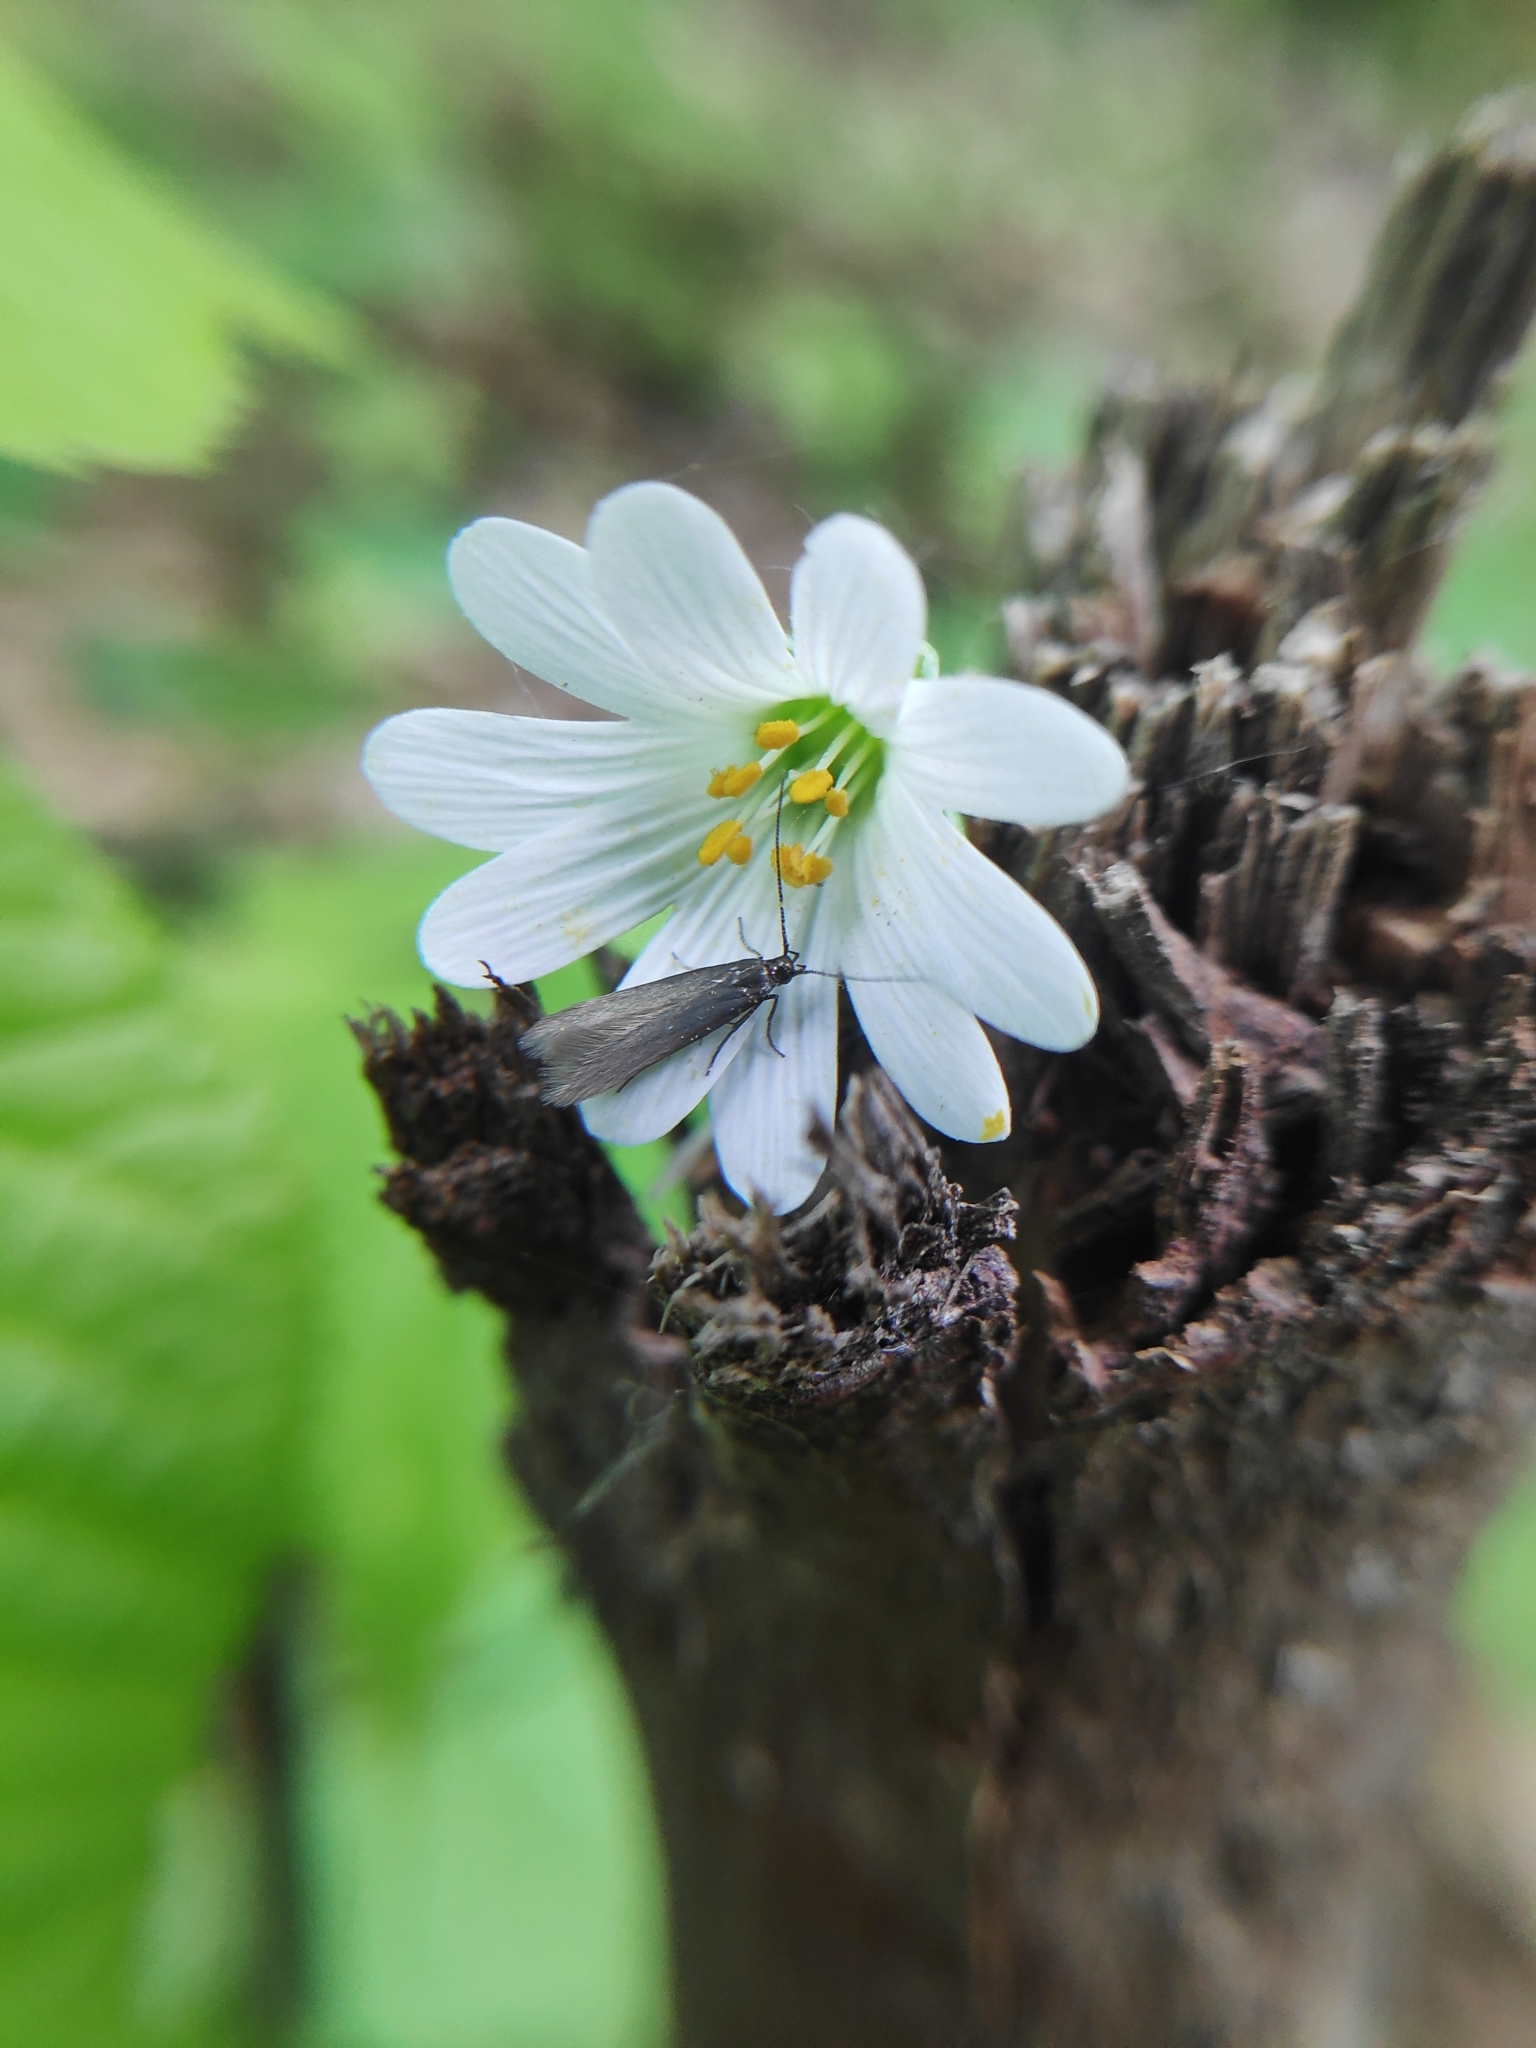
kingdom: Animalia
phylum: Arthropoda
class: Insecta
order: Lepidoptera
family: Coleophoridae
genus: Metriotes
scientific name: Metriotes lutarea
